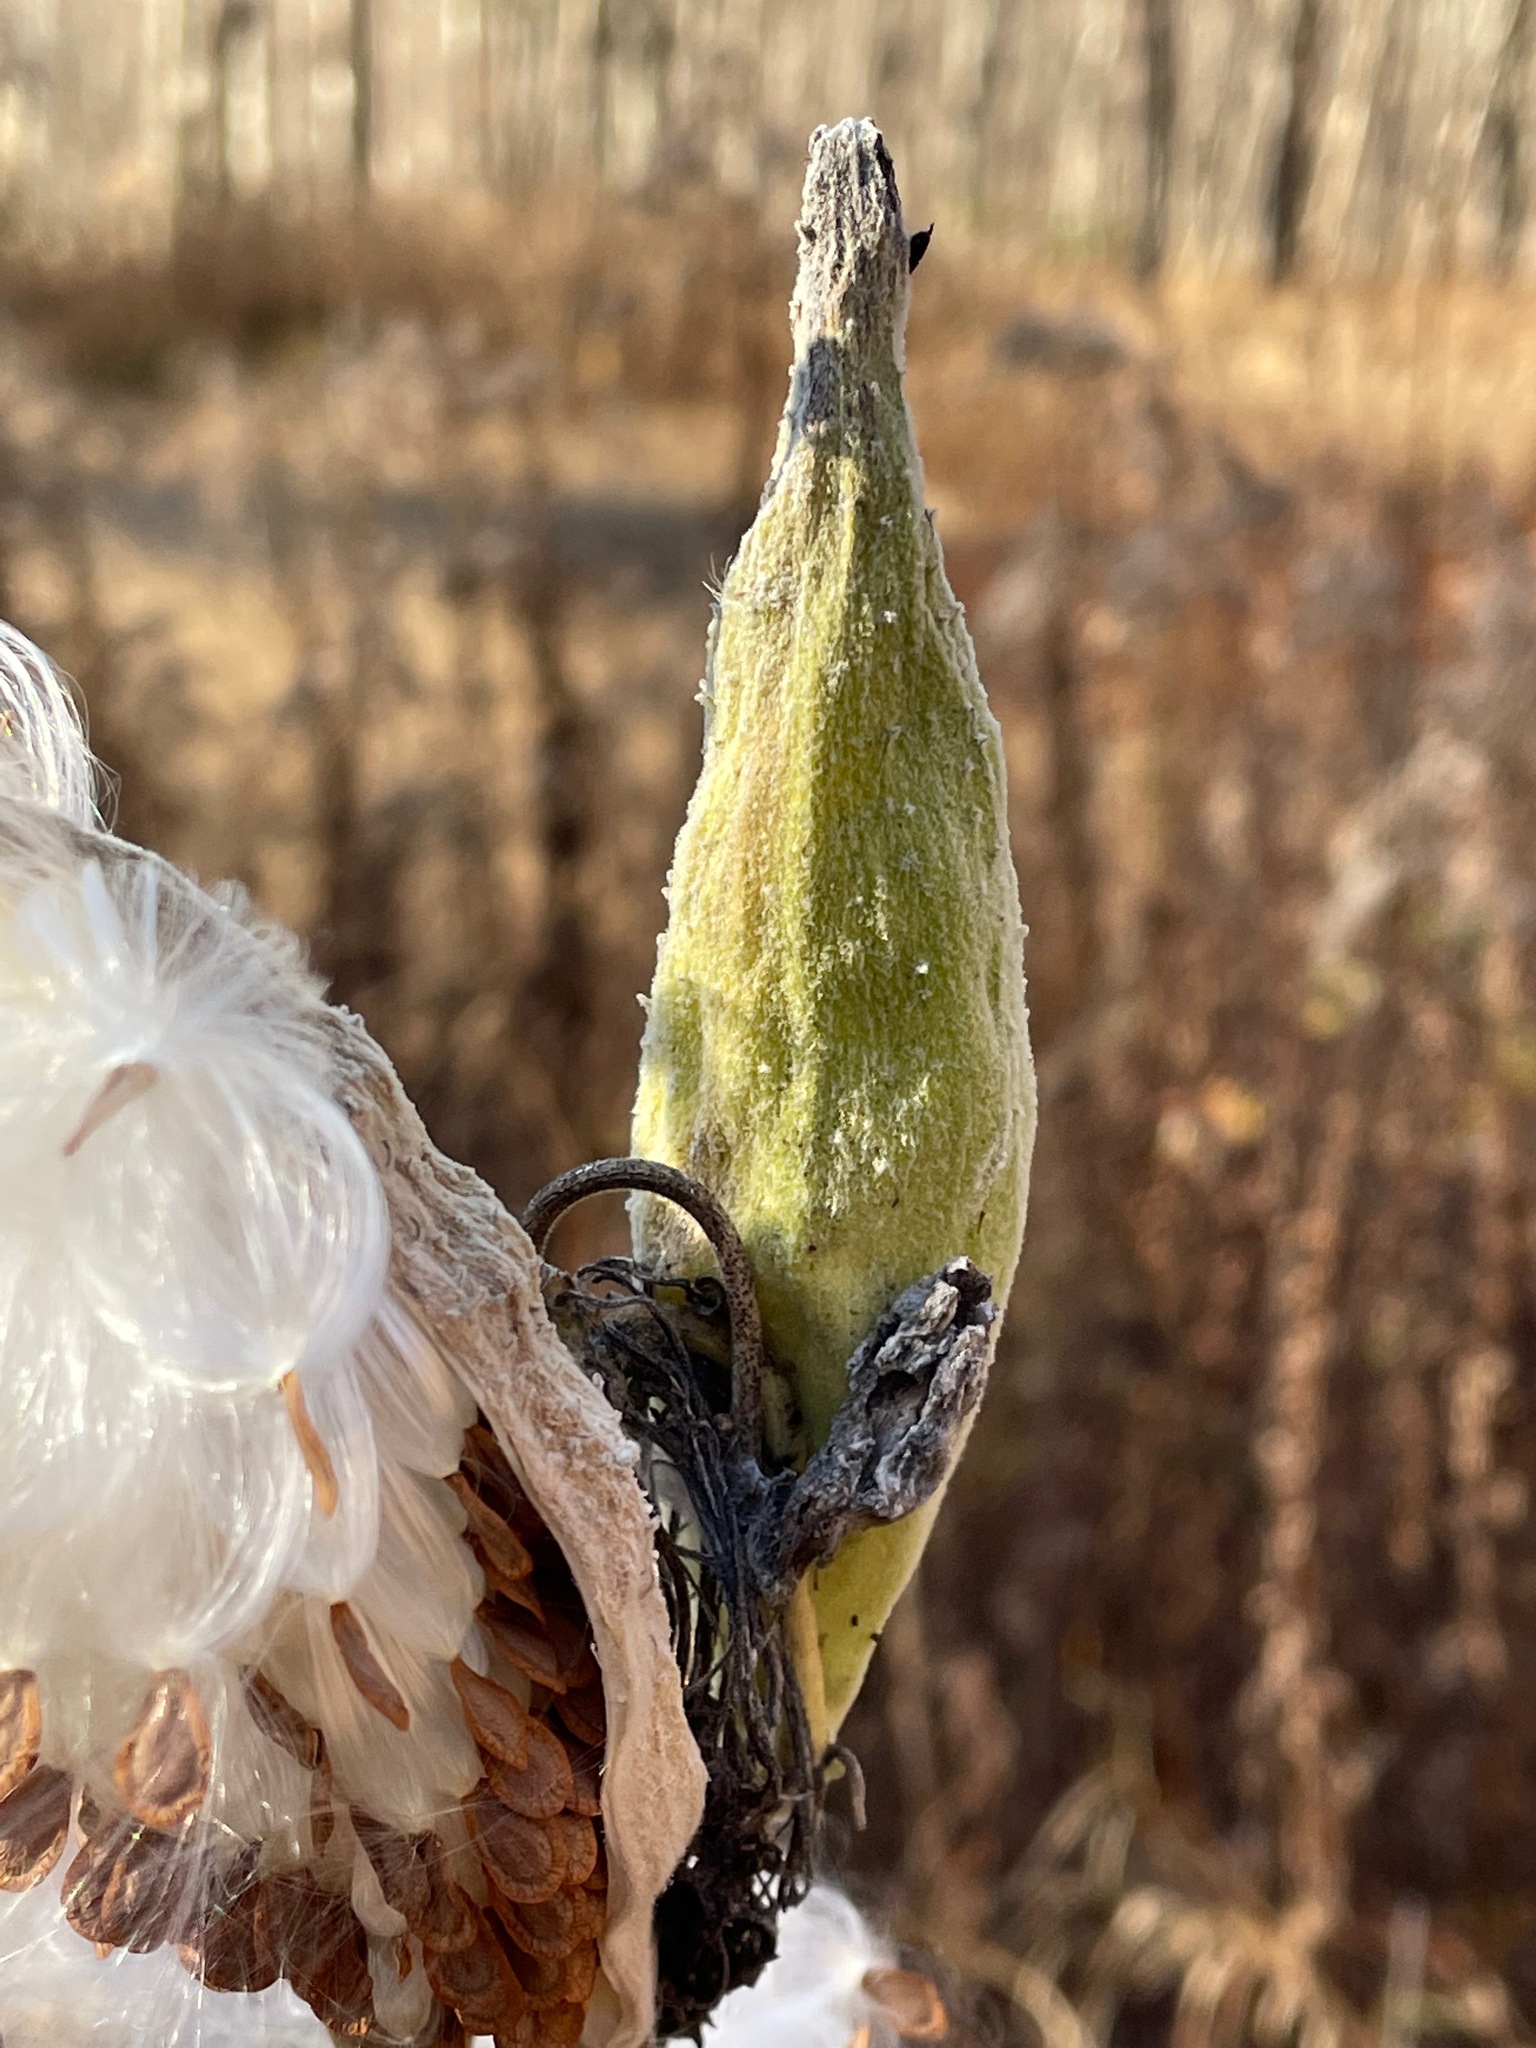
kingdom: Plantae
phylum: Tracheophyta
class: Magnoliopsida
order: Gentianales
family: Apocynaceae
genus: Asclepias
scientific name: Asclepias syriaca
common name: Common milkweed
